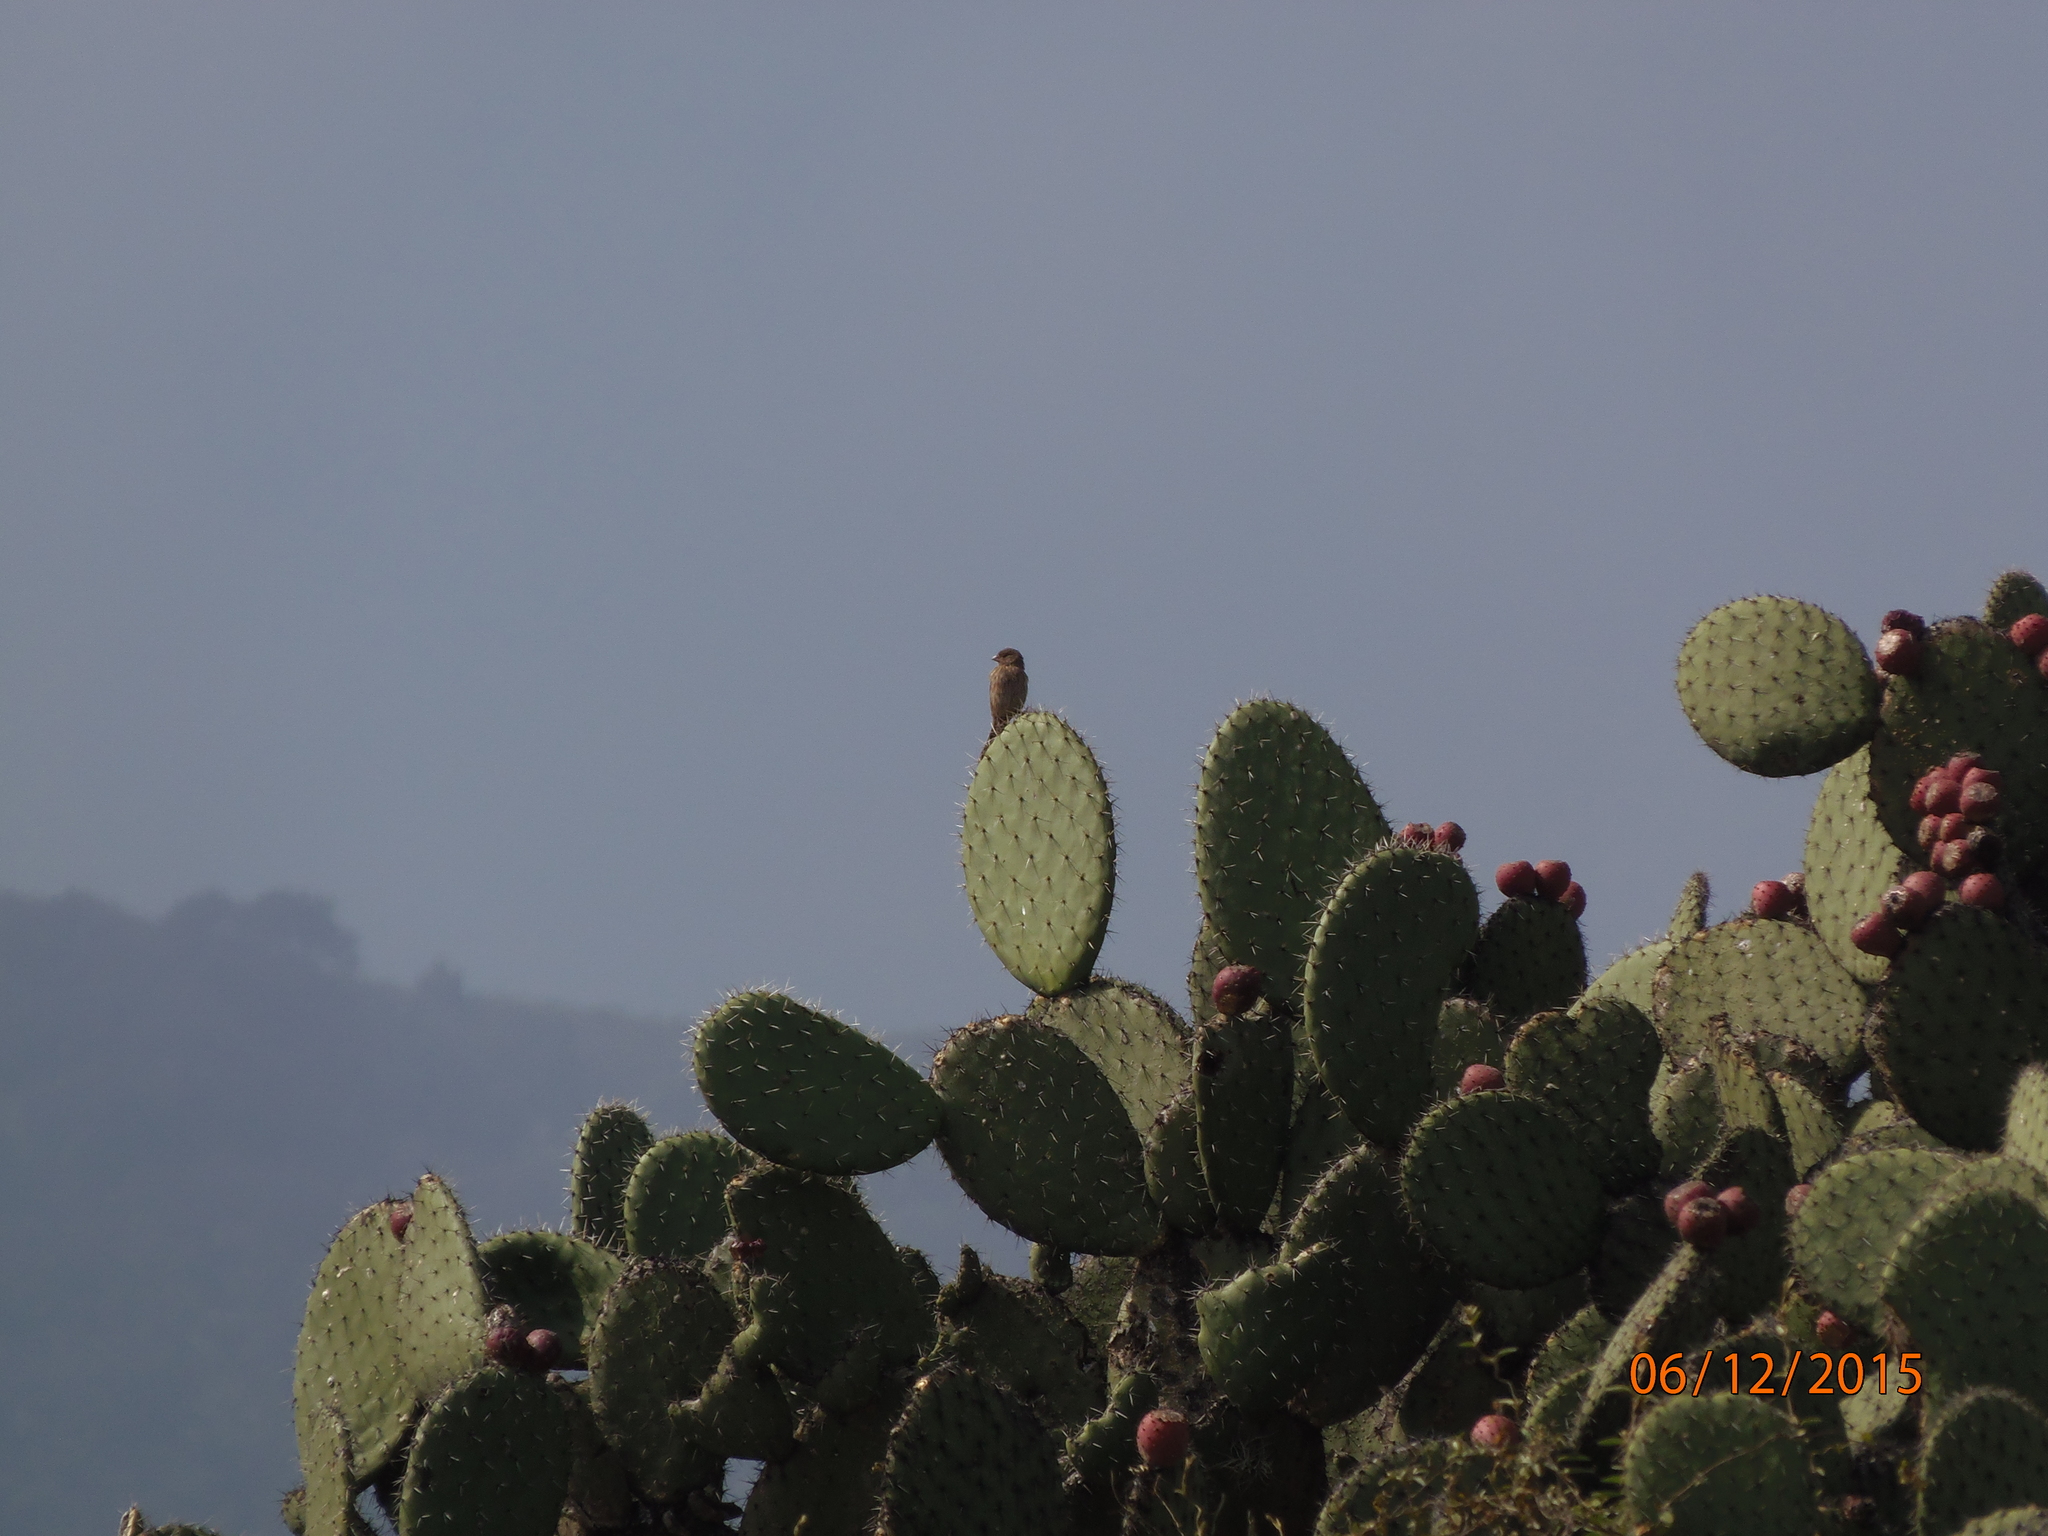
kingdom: Animalia
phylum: Chordata
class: Aves
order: Passeriformes
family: Fringillidae
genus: Haemorhous
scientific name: Haemorhous mexicanus
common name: House finch
